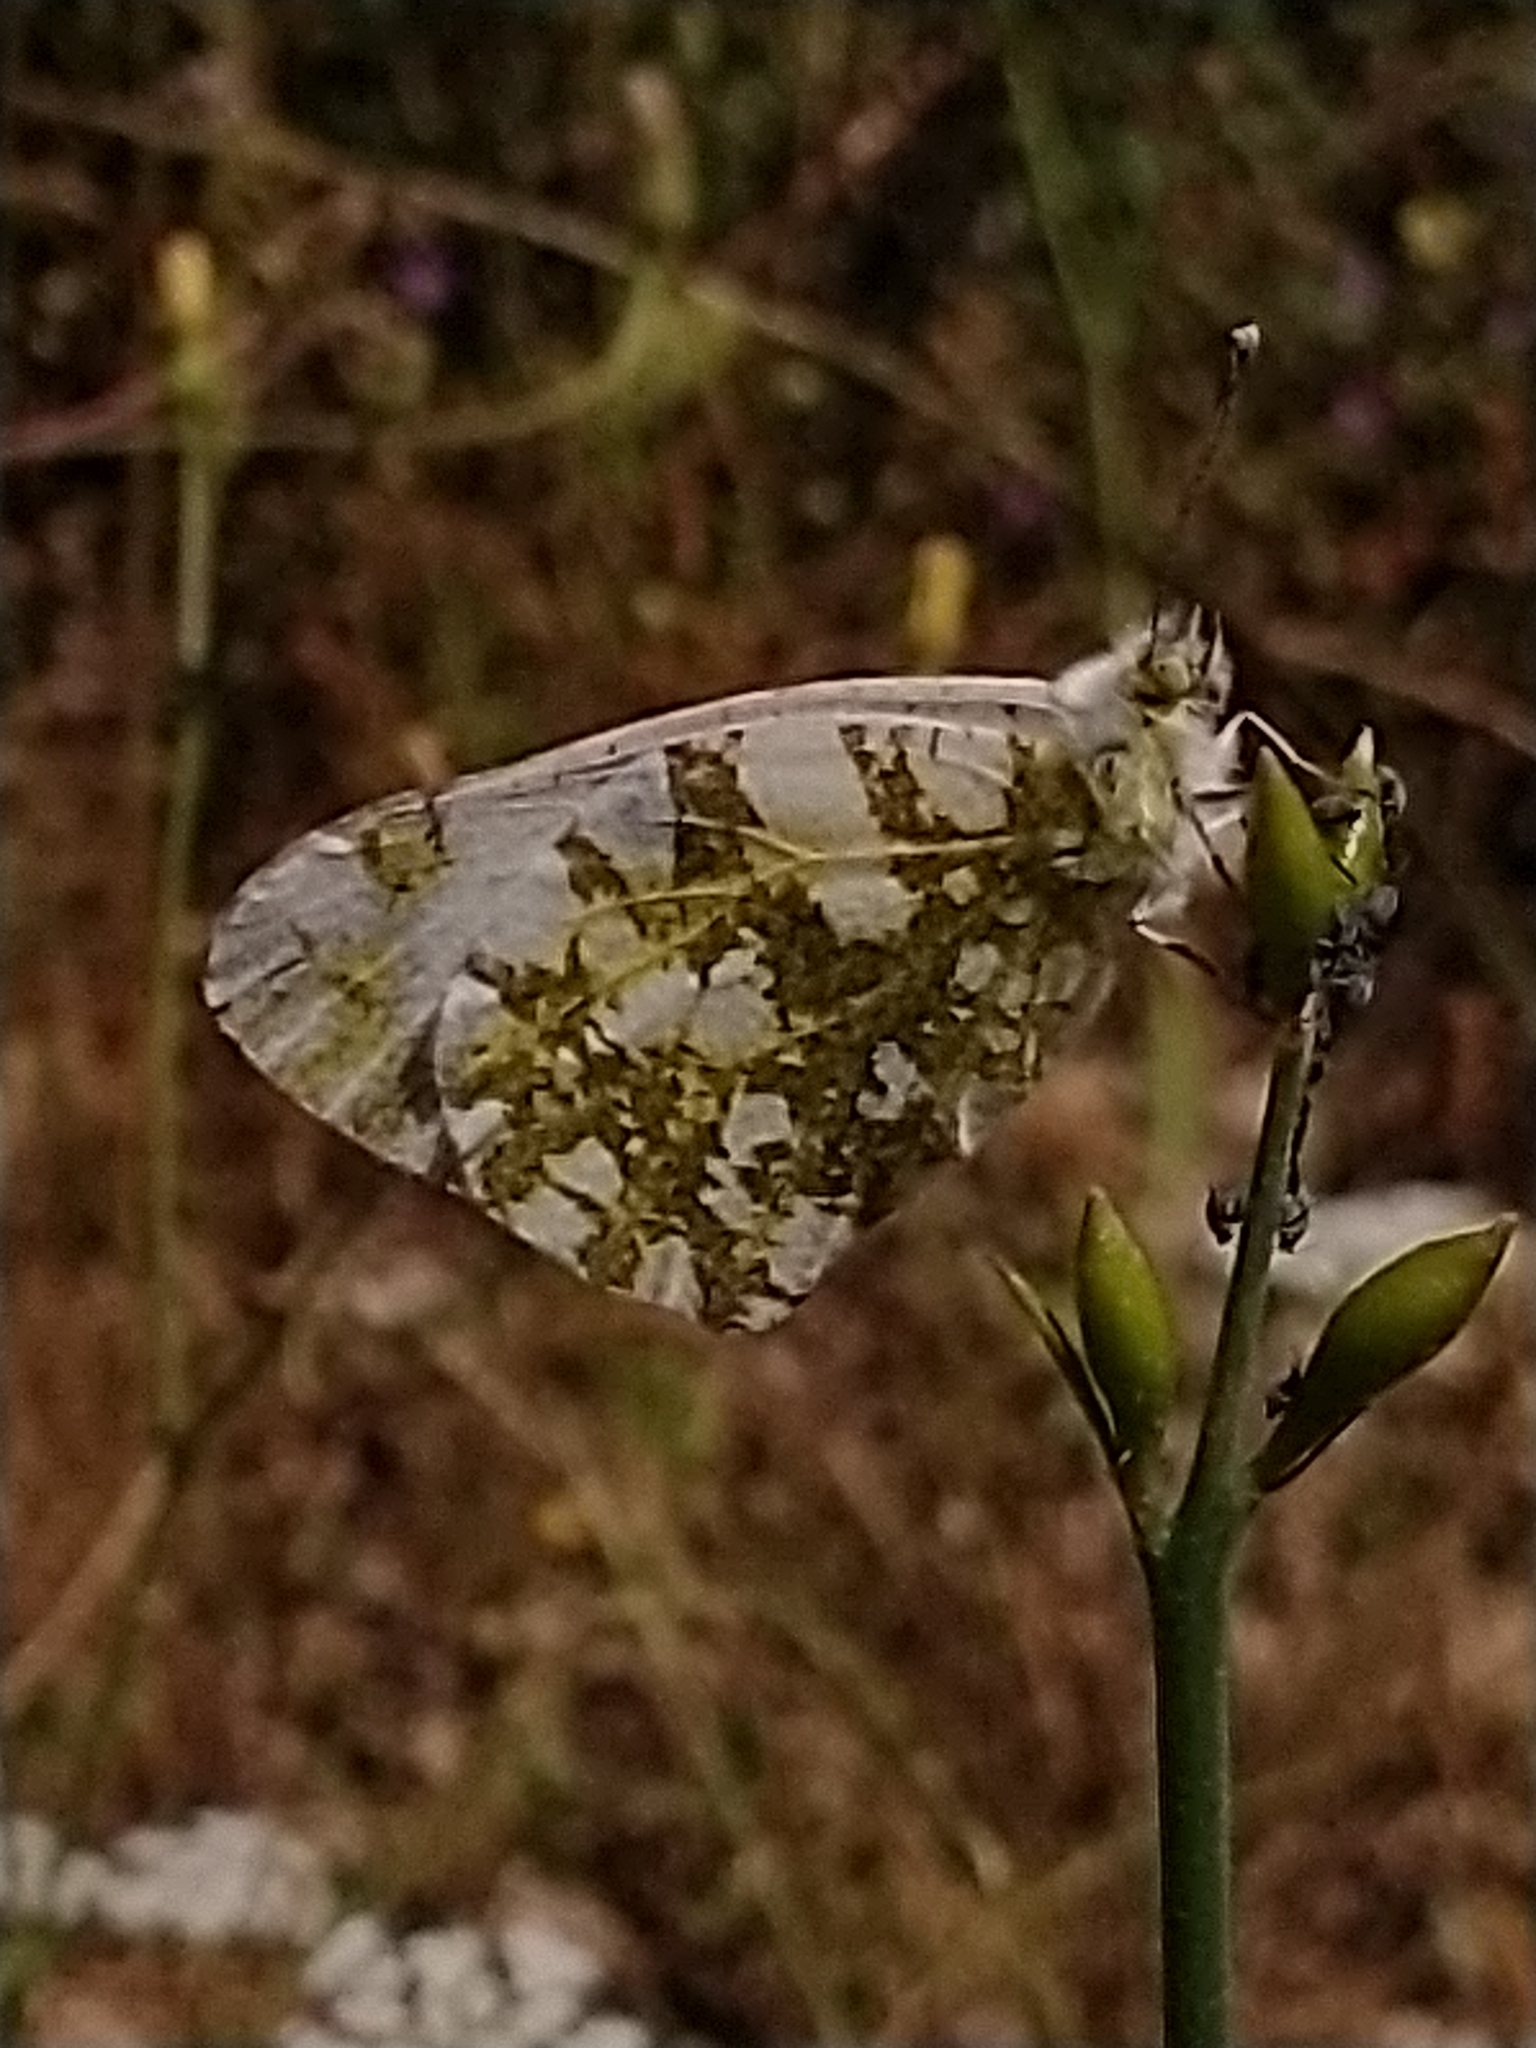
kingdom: Animalia
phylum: Arthropoda
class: Insecta
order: Lepidoptera
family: Pieridae
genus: Euchloe
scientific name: Euchloe ausonia
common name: Eastern dappled white
